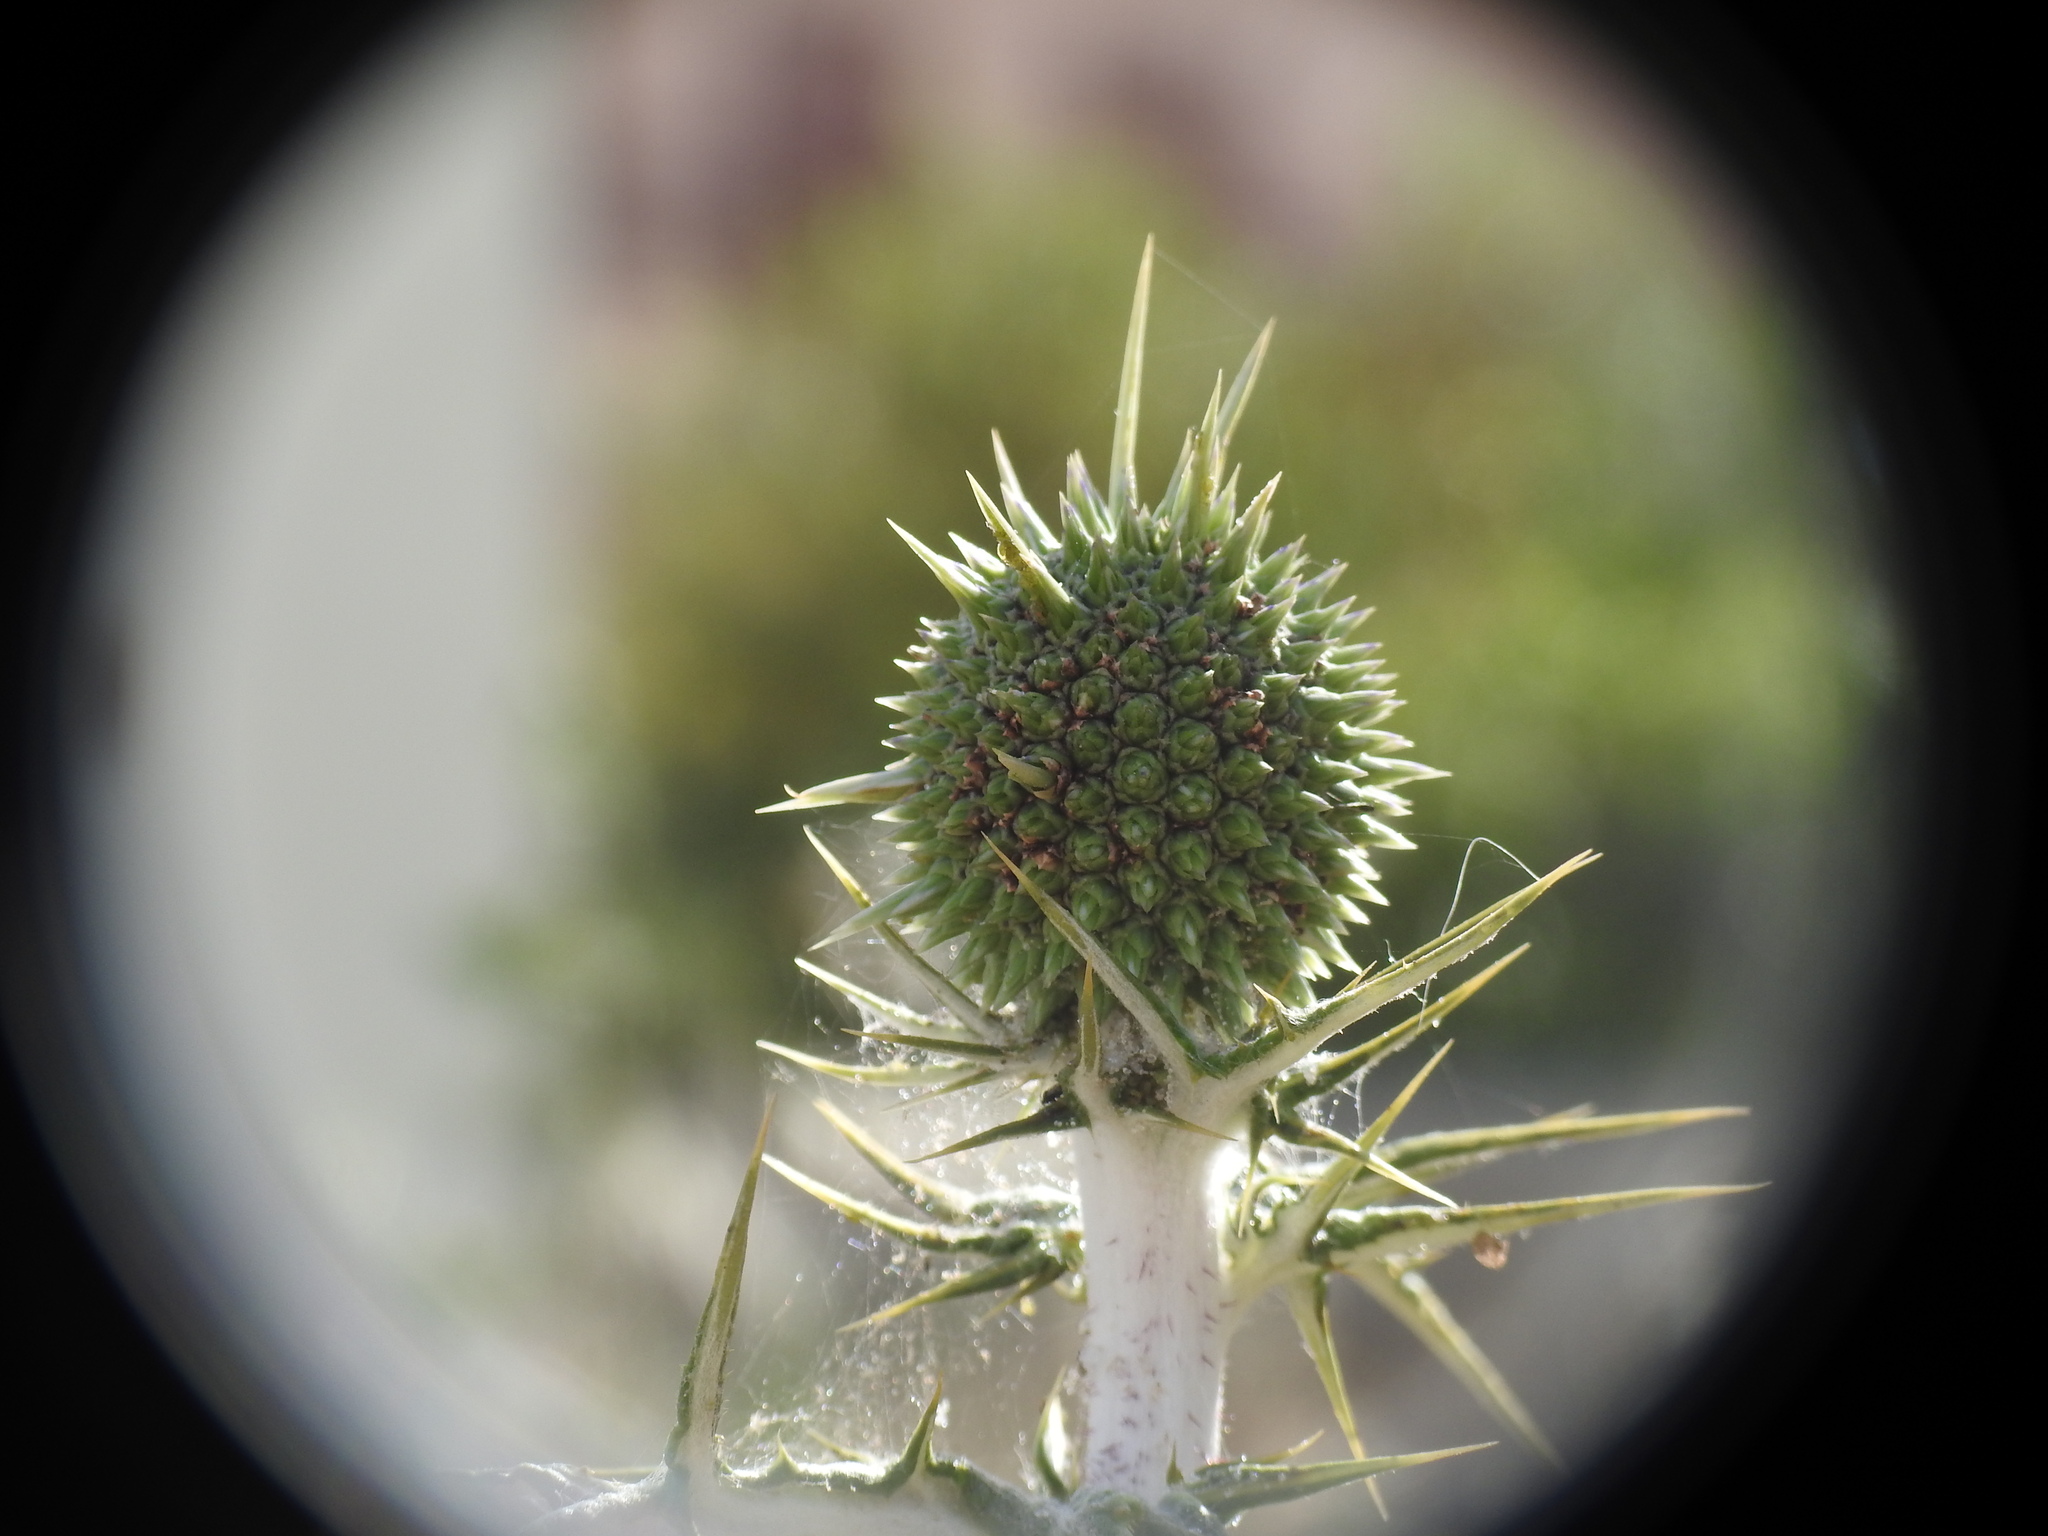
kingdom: Plantae
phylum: Tracheophyta
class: Magnoliopsida
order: Asterales
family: Asteraceae
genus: Echinops
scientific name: Echinops spinosissimus
